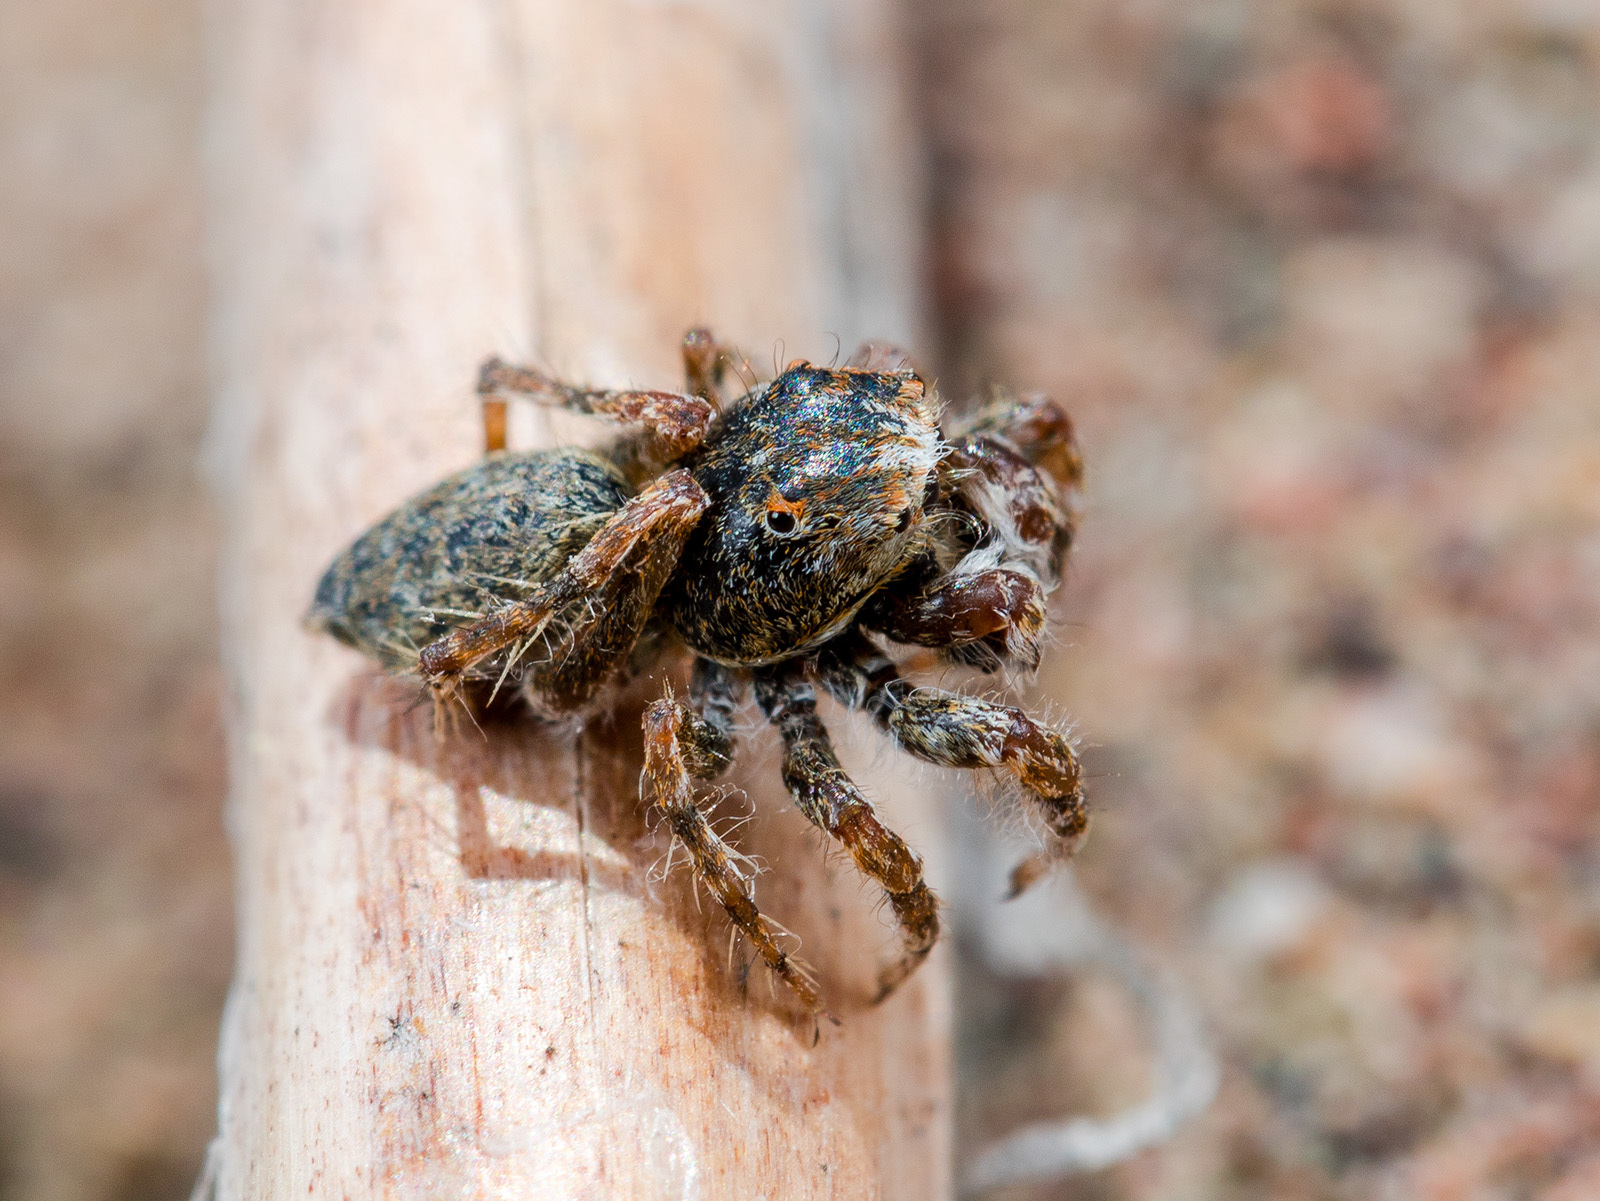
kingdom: Animalia
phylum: Arthropoda
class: Arachnida
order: Araneae
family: Salticidae
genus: Yllenus
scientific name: Yllenus uiguricus
